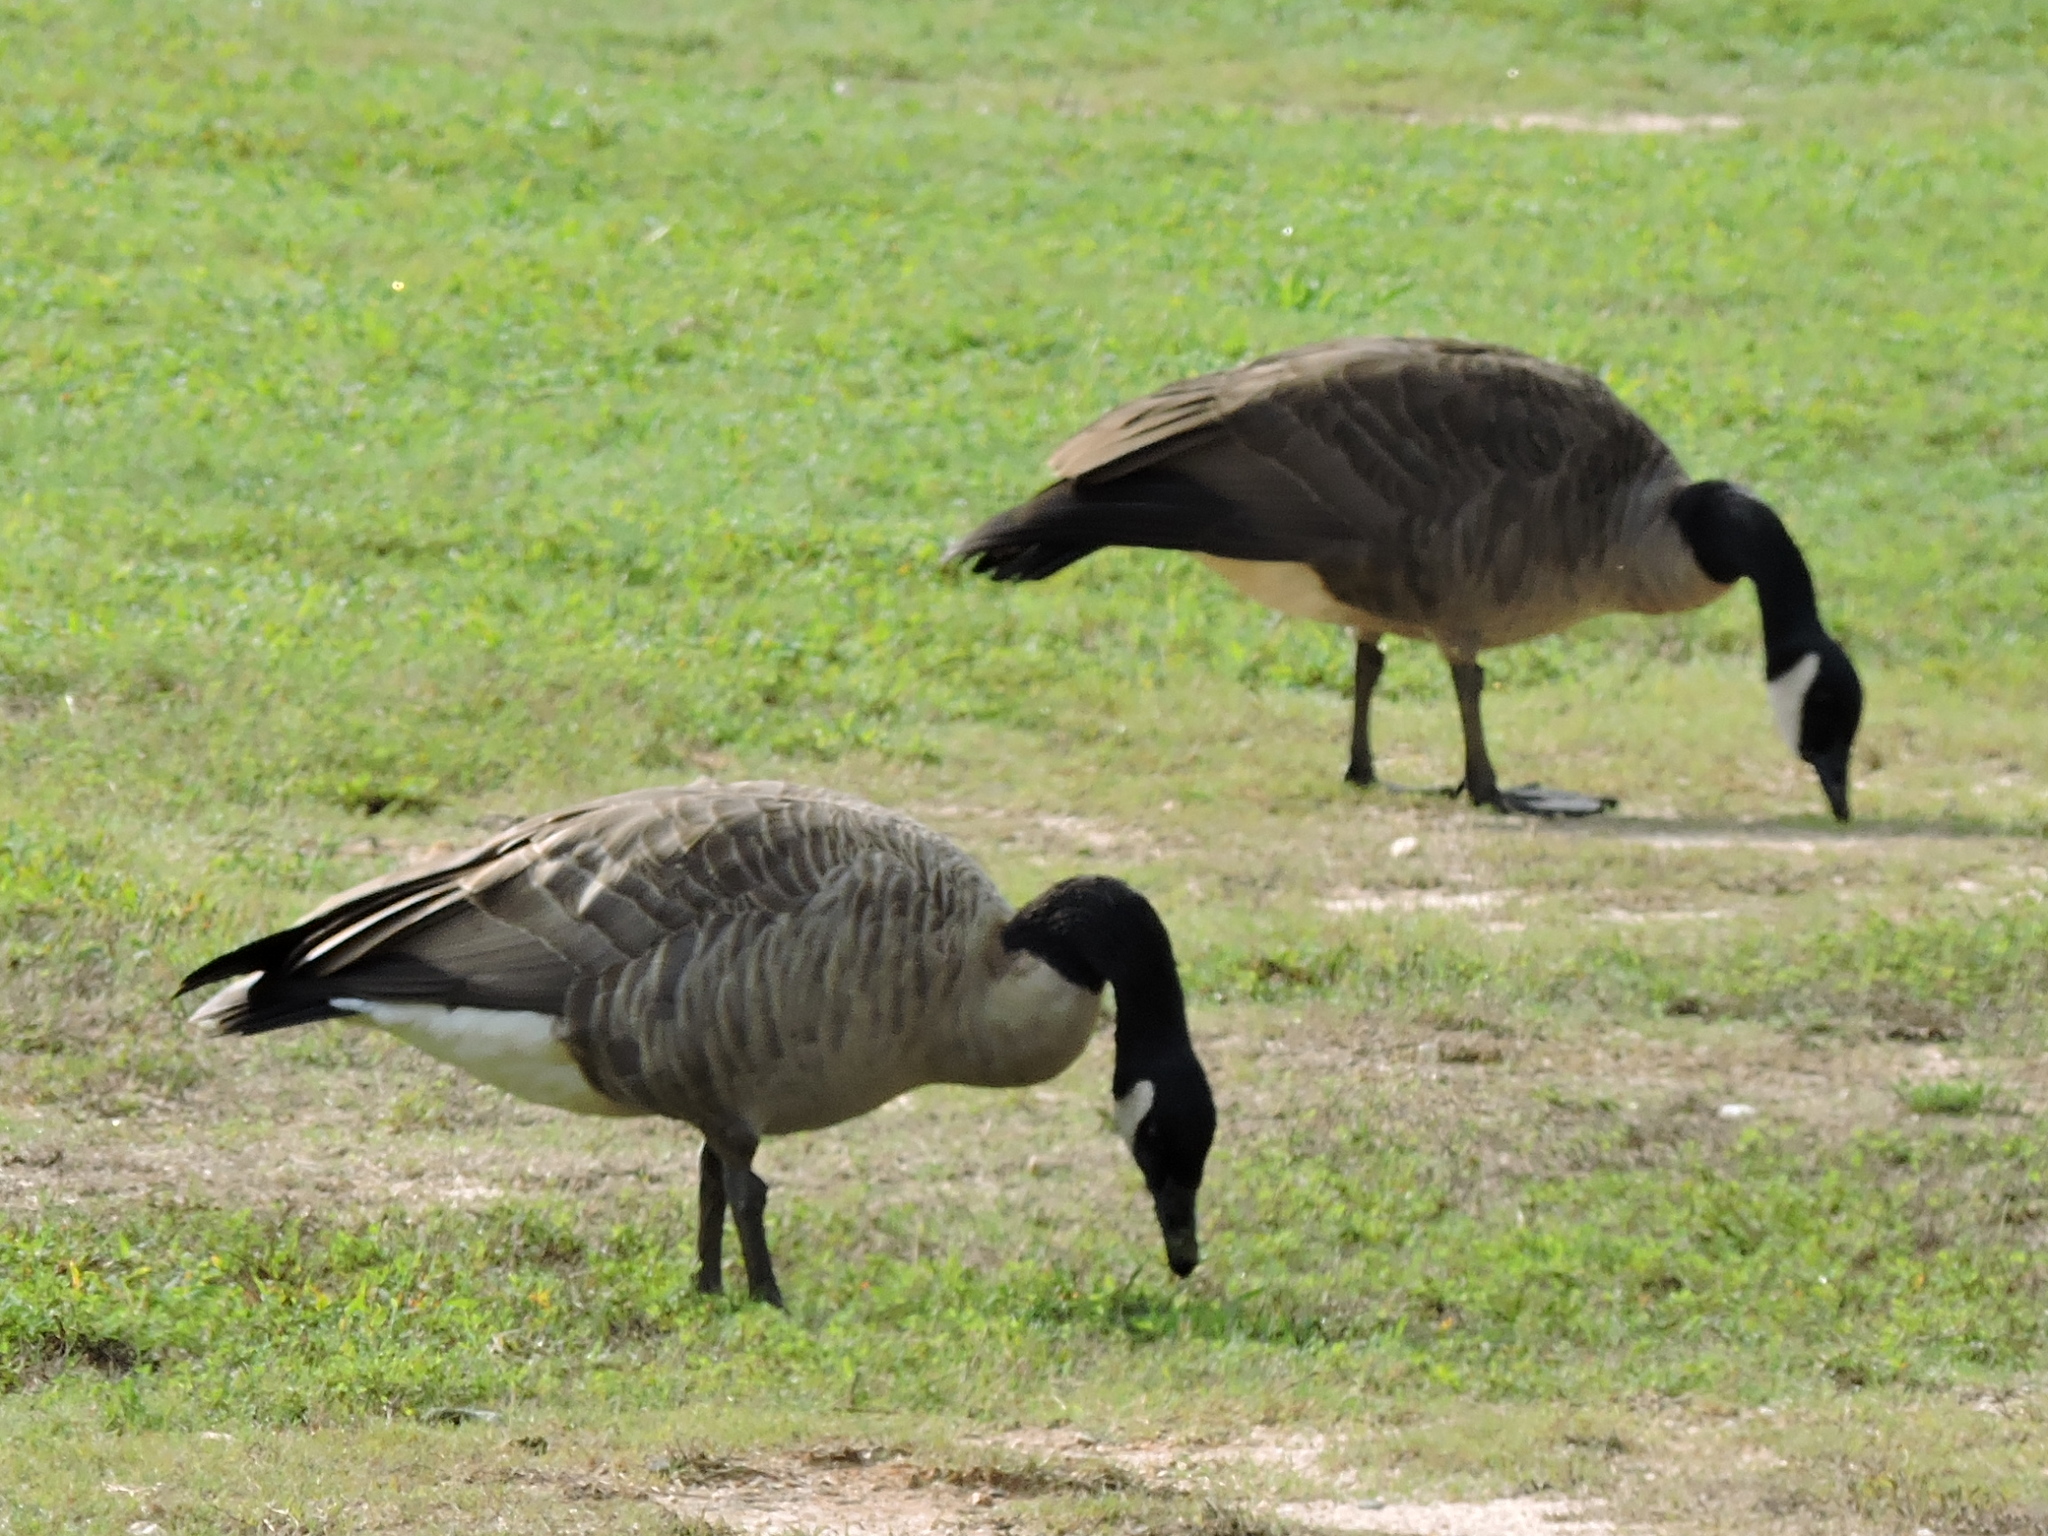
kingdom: Animalia
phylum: Chordata
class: Aves
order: Anseriformes
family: Anatidae
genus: Branta
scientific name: Branta canadensis
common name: Canada goose
